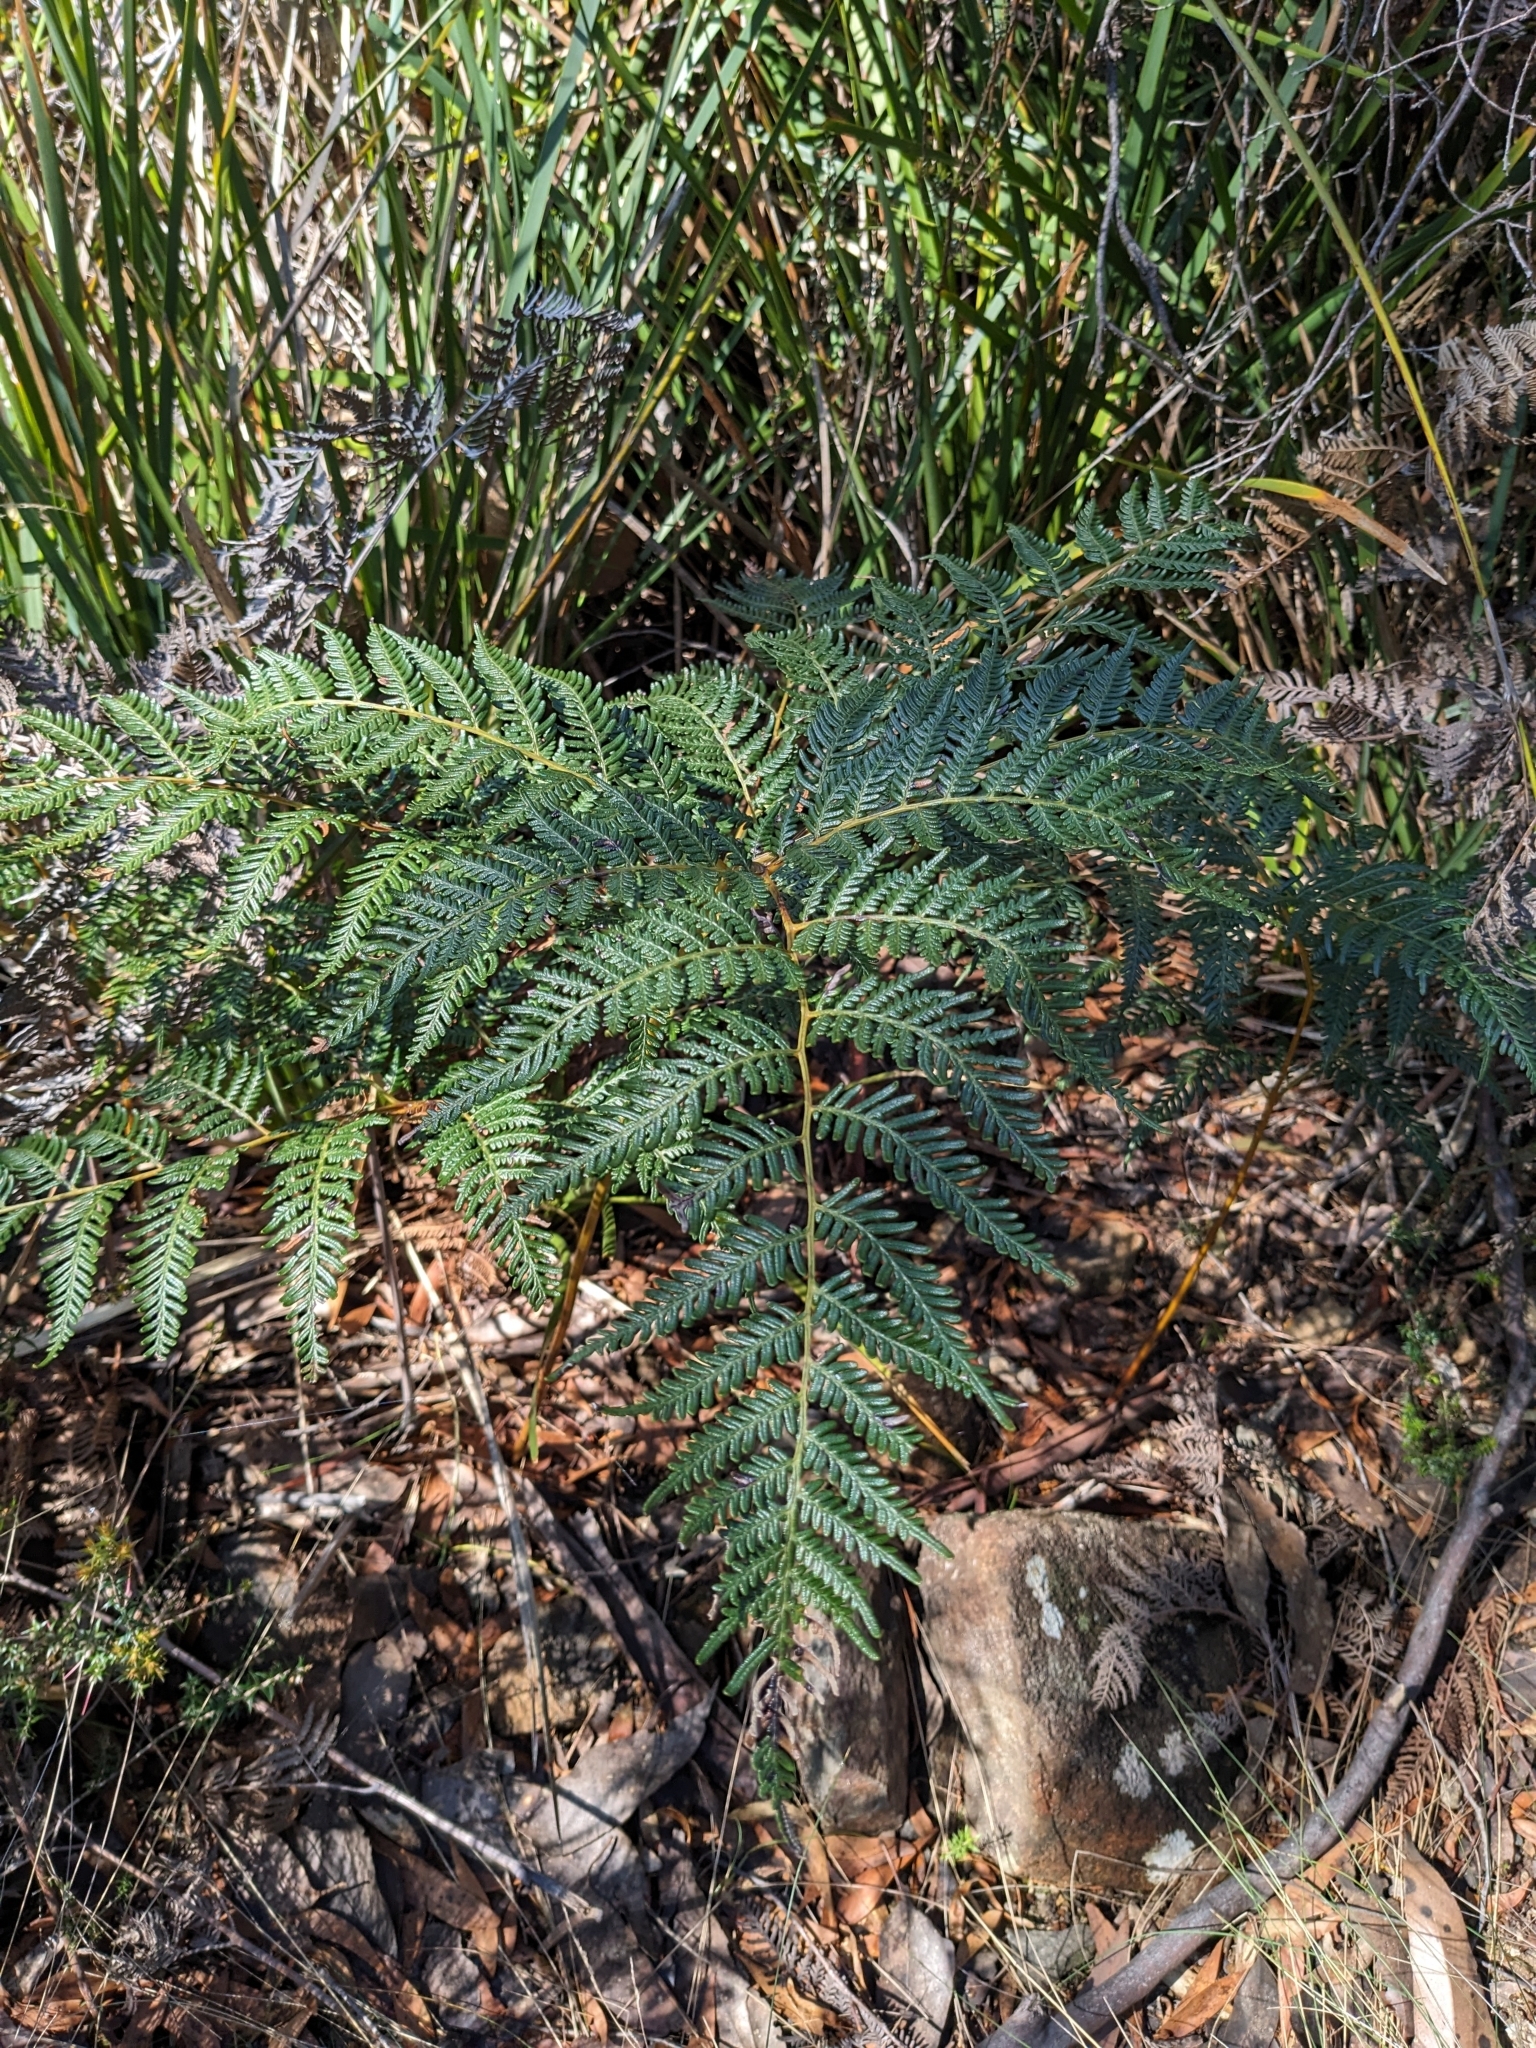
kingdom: Plantae
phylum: Tracheophyta
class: Polypodiopsida
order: Polypodiales
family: Dennstaedtiaceae
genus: Pteridium
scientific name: Pteridium esculentum
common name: Bracken fern
